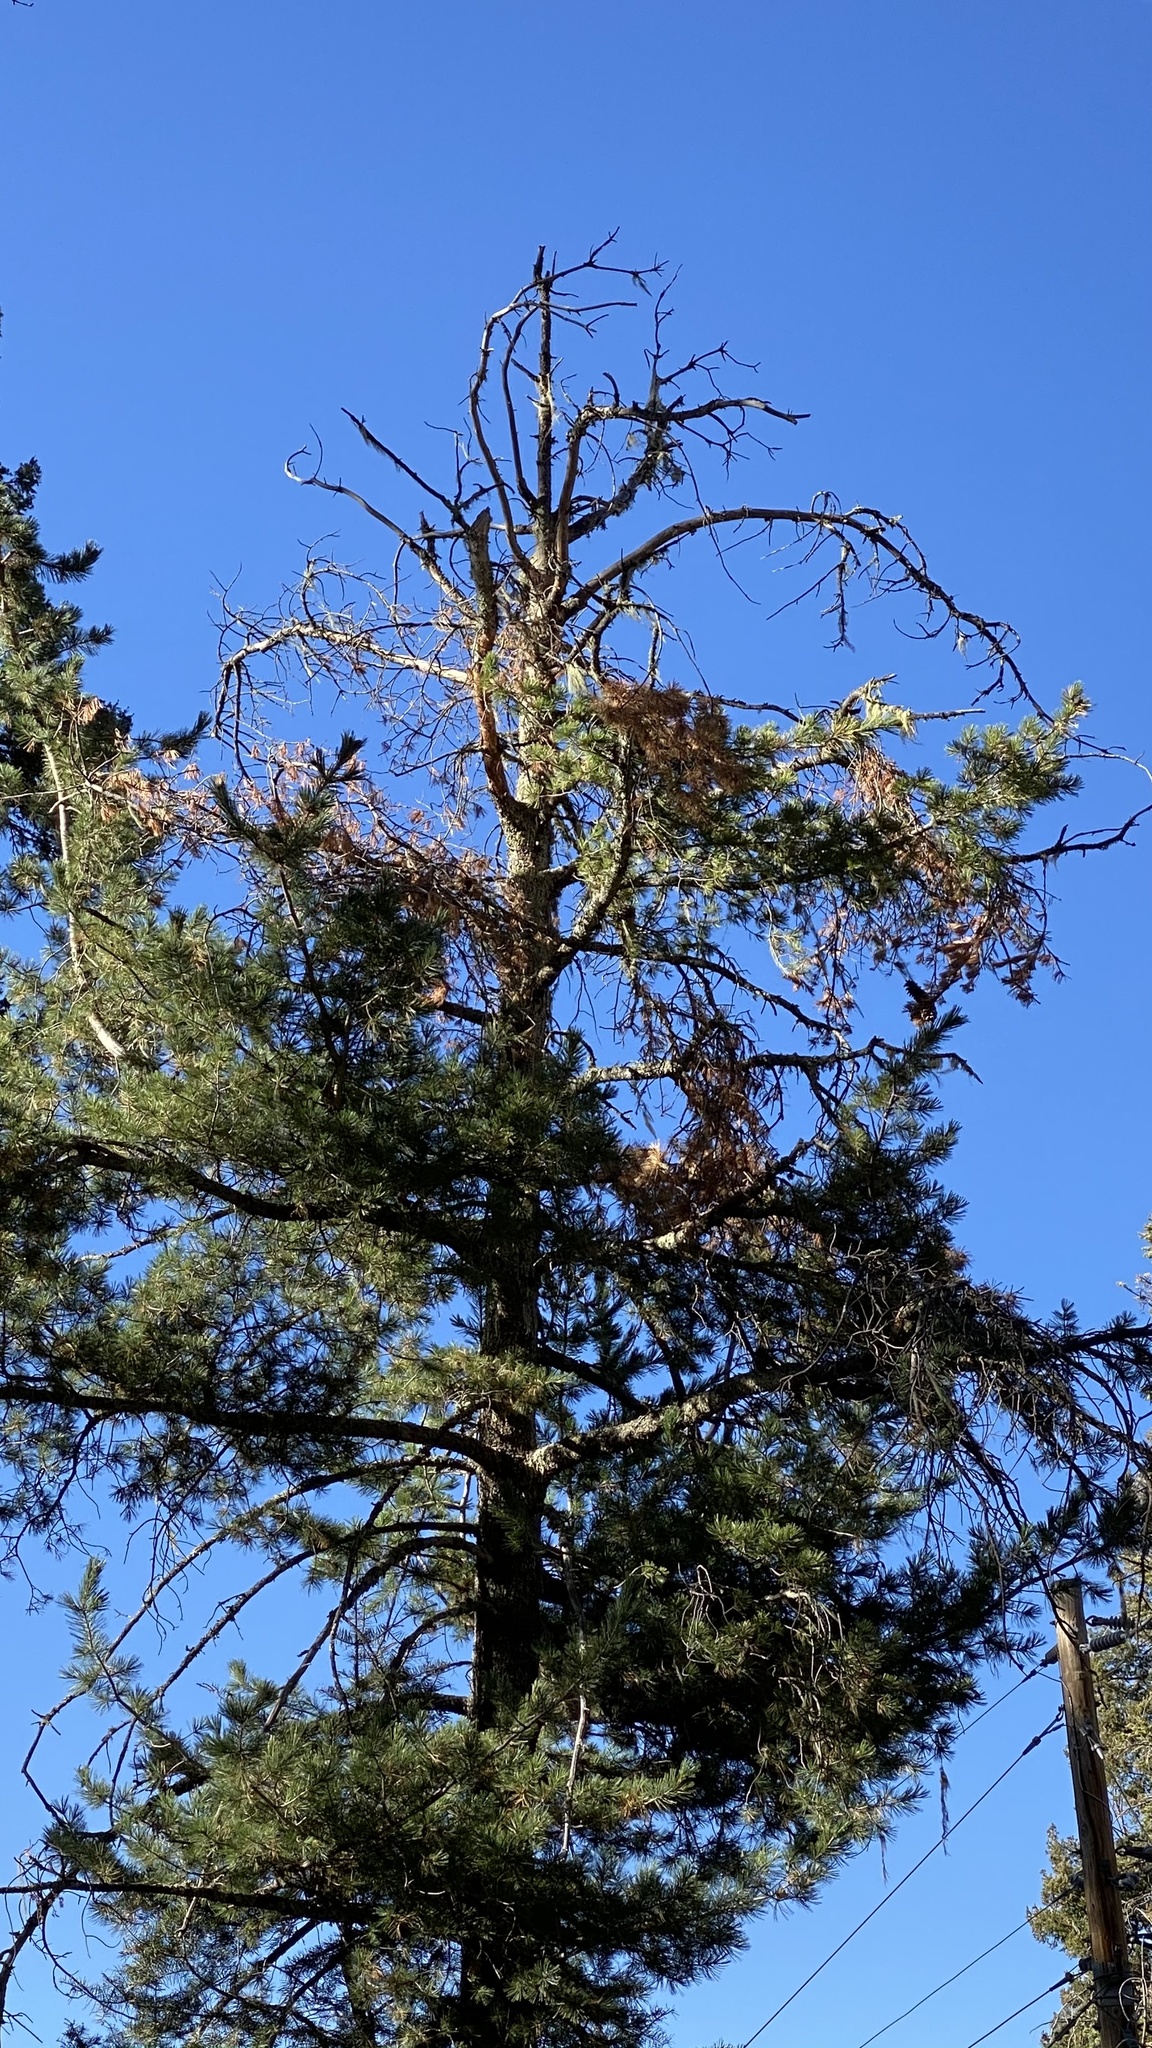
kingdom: Plantae
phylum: Tracheophyta
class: Pinopsida
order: Pinales
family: Pinaceae
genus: Pinus
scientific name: Pinus strobiformis
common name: Southwestern white pine
